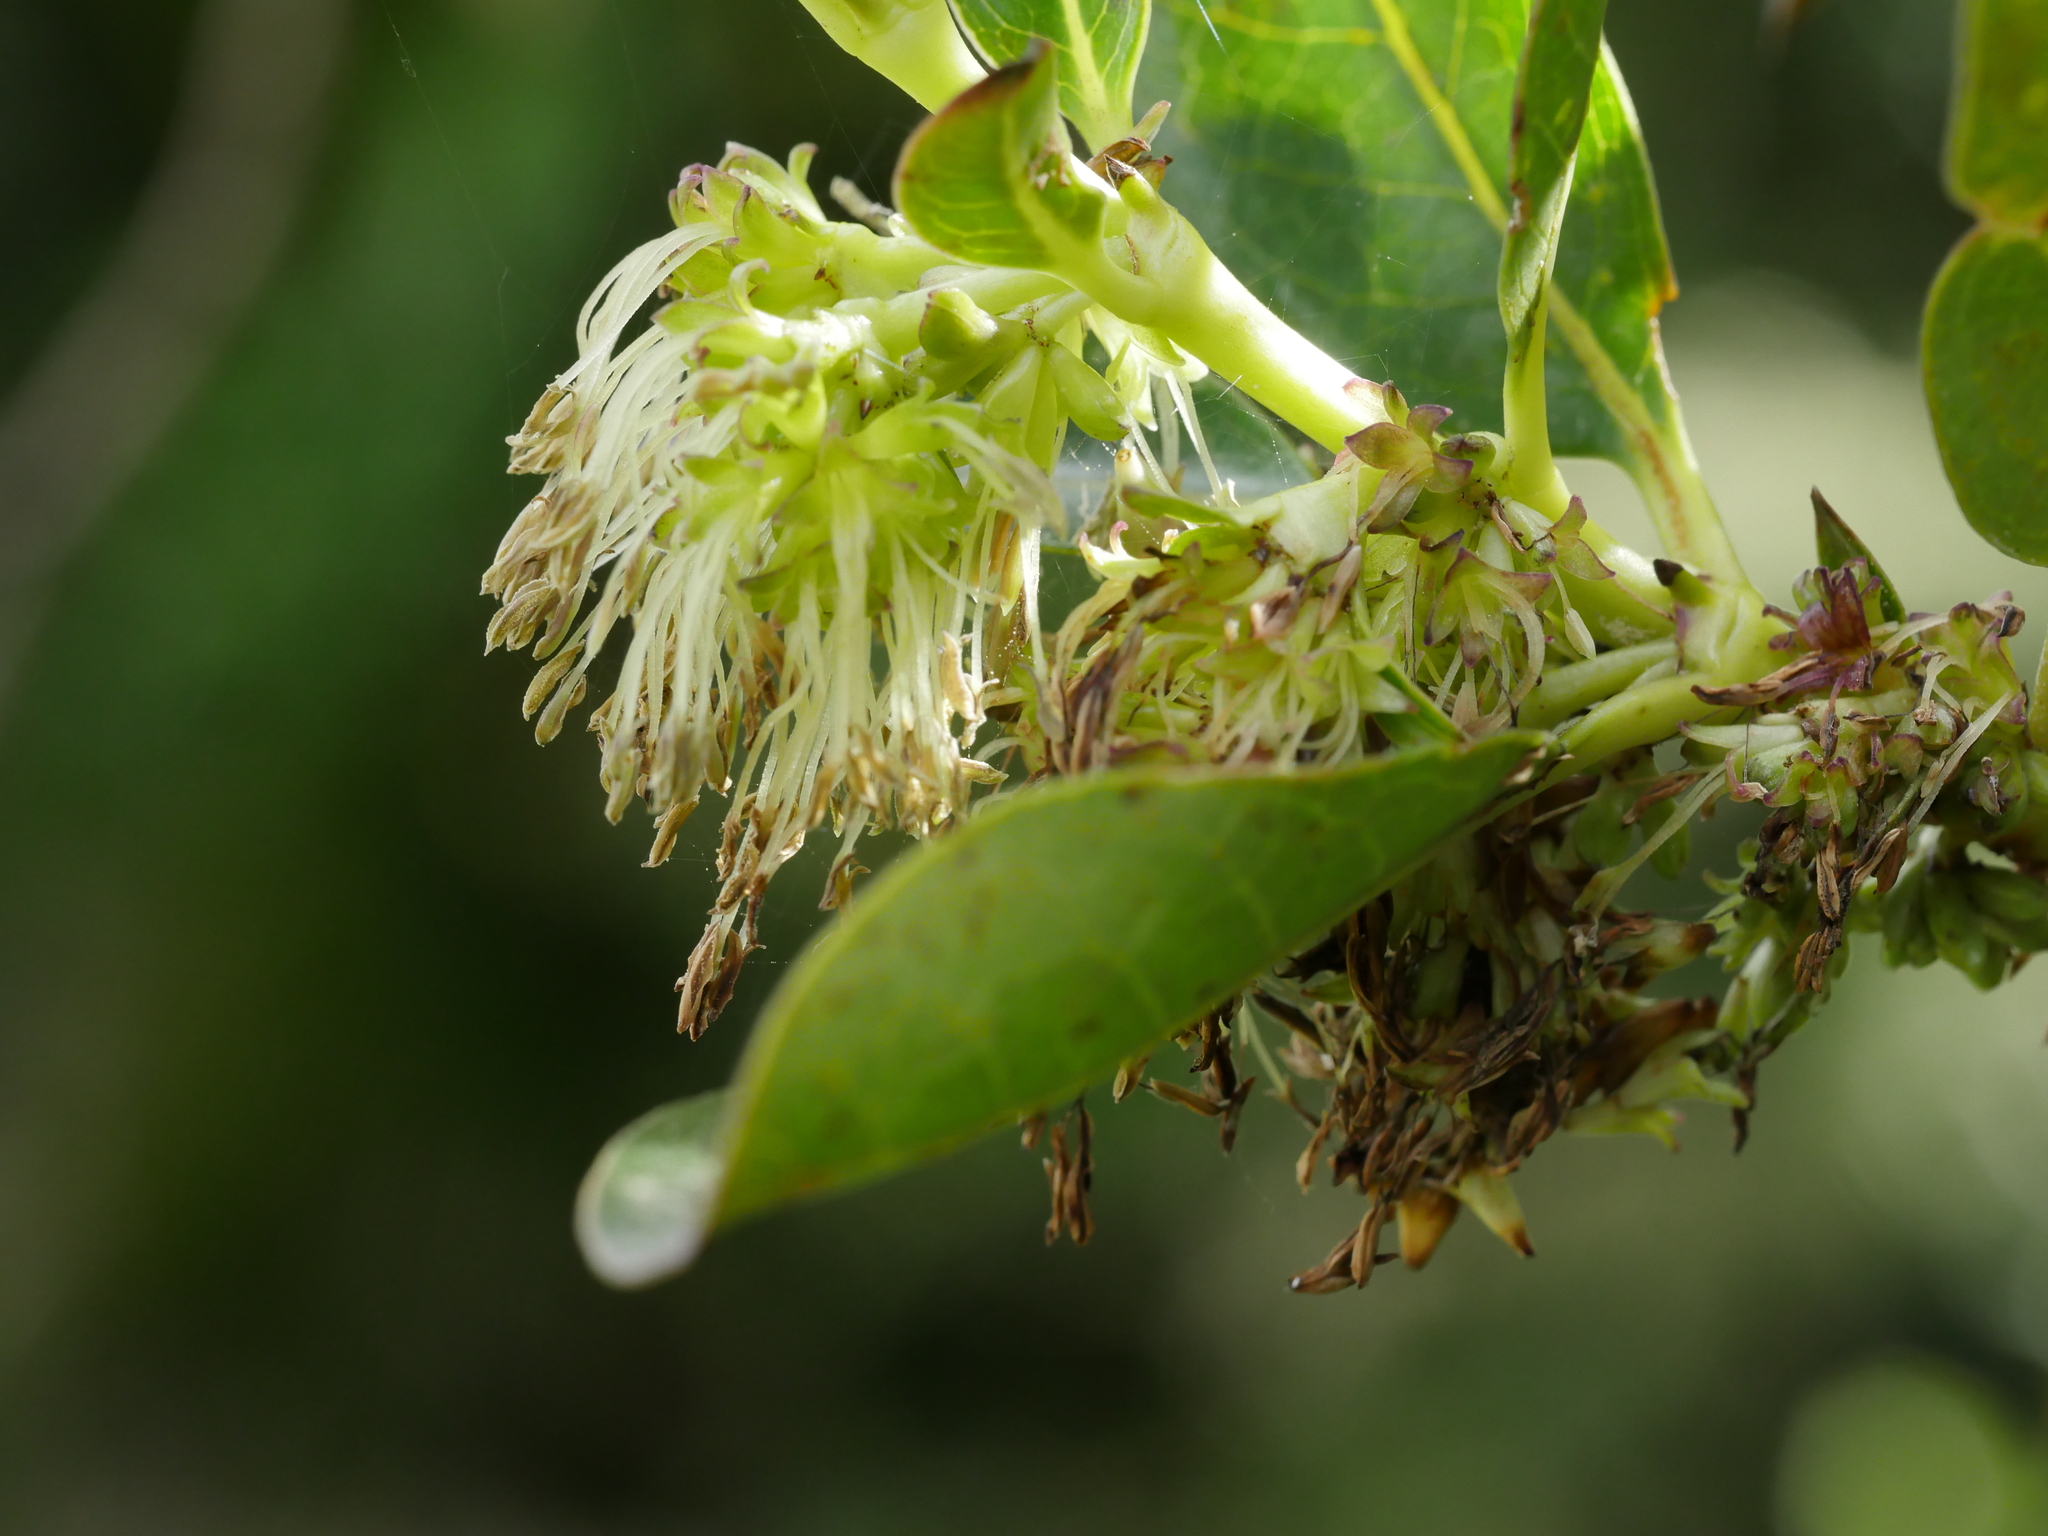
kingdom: Plantae
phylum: Tracheophyta
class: Magnoliopsida
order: Gentianales
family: Rubiaceae
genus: Coprosma
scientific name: Coprosma robusta
